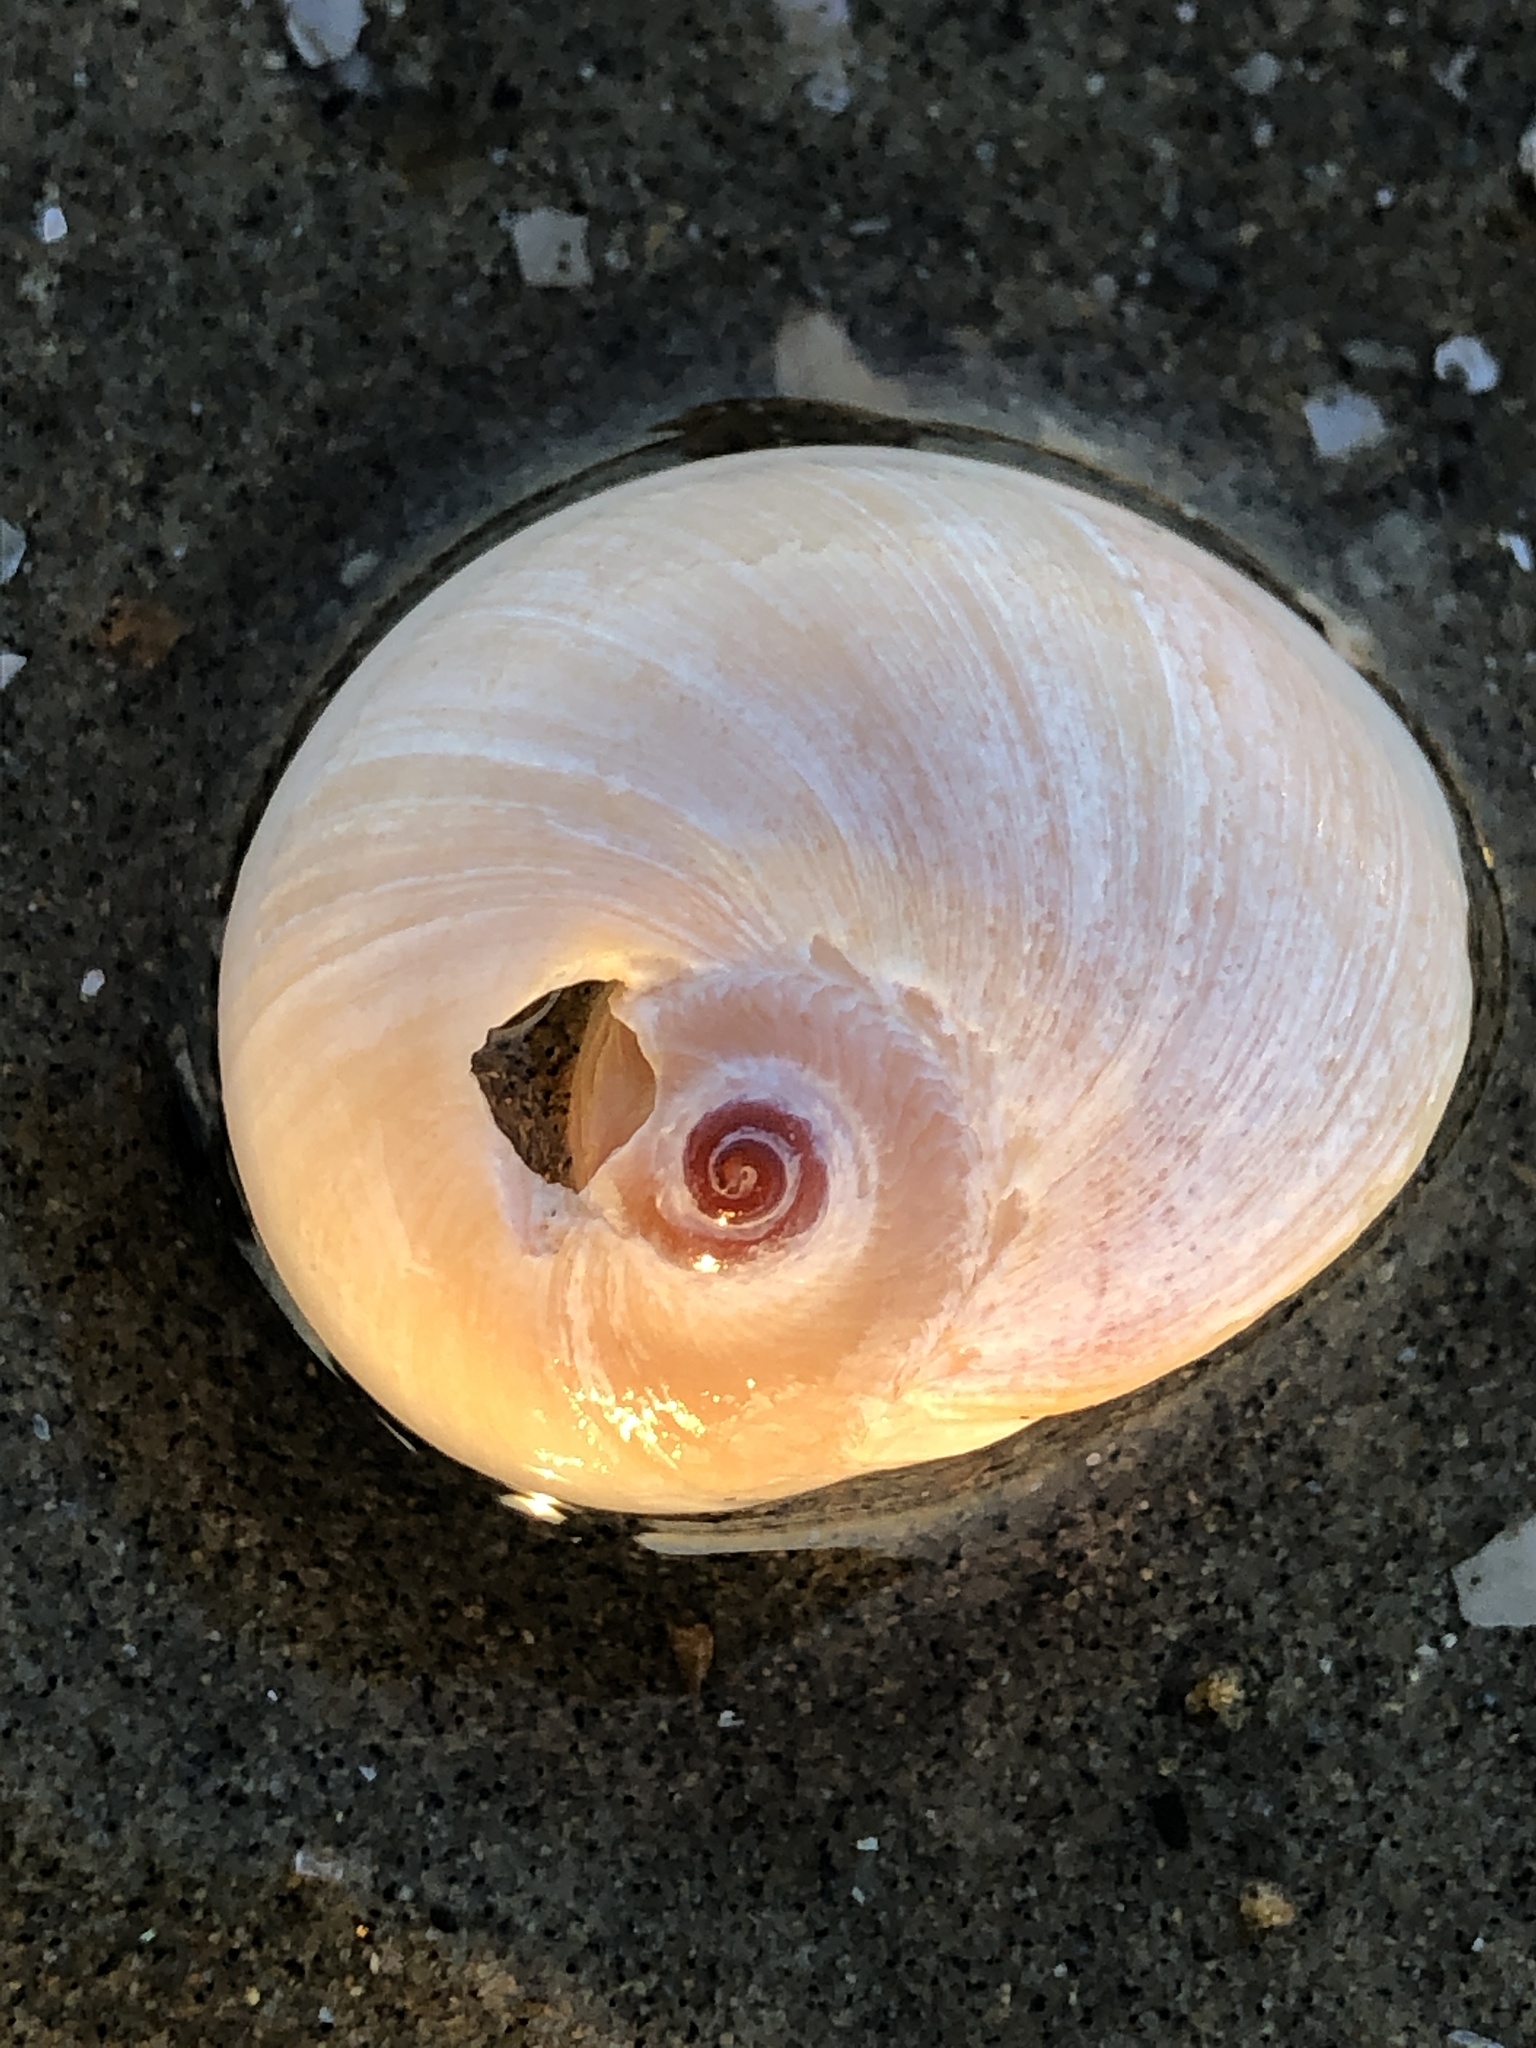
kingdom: Animalia
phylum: Mollusca
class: Gastropoda
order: Littorinimorpha
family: Naticidae
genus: Neverita
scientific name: Neverita didyma
